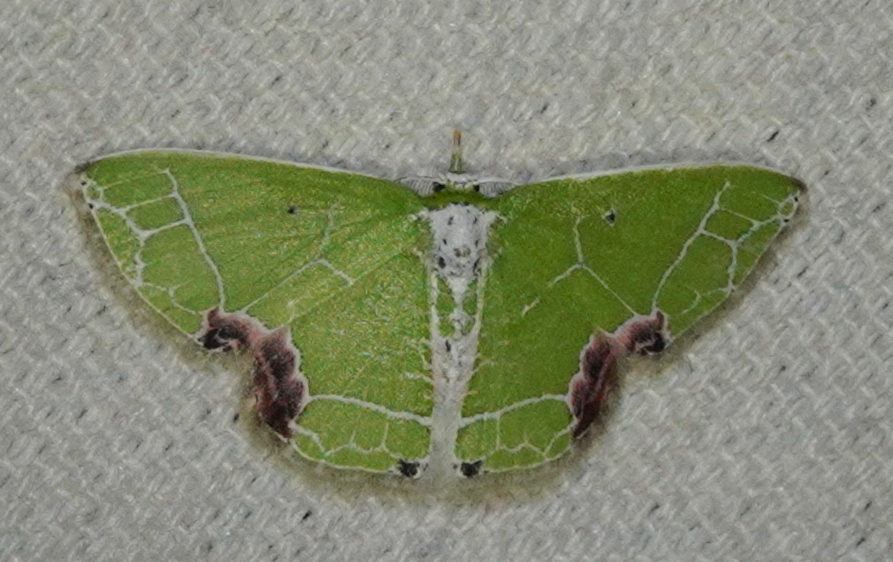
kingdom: Animalia
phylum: Arthropoda
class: Insecta
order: Lepidoptera
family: Geometridae
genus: Protuliocnemis
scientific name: Protuliocnemis biplagiata
